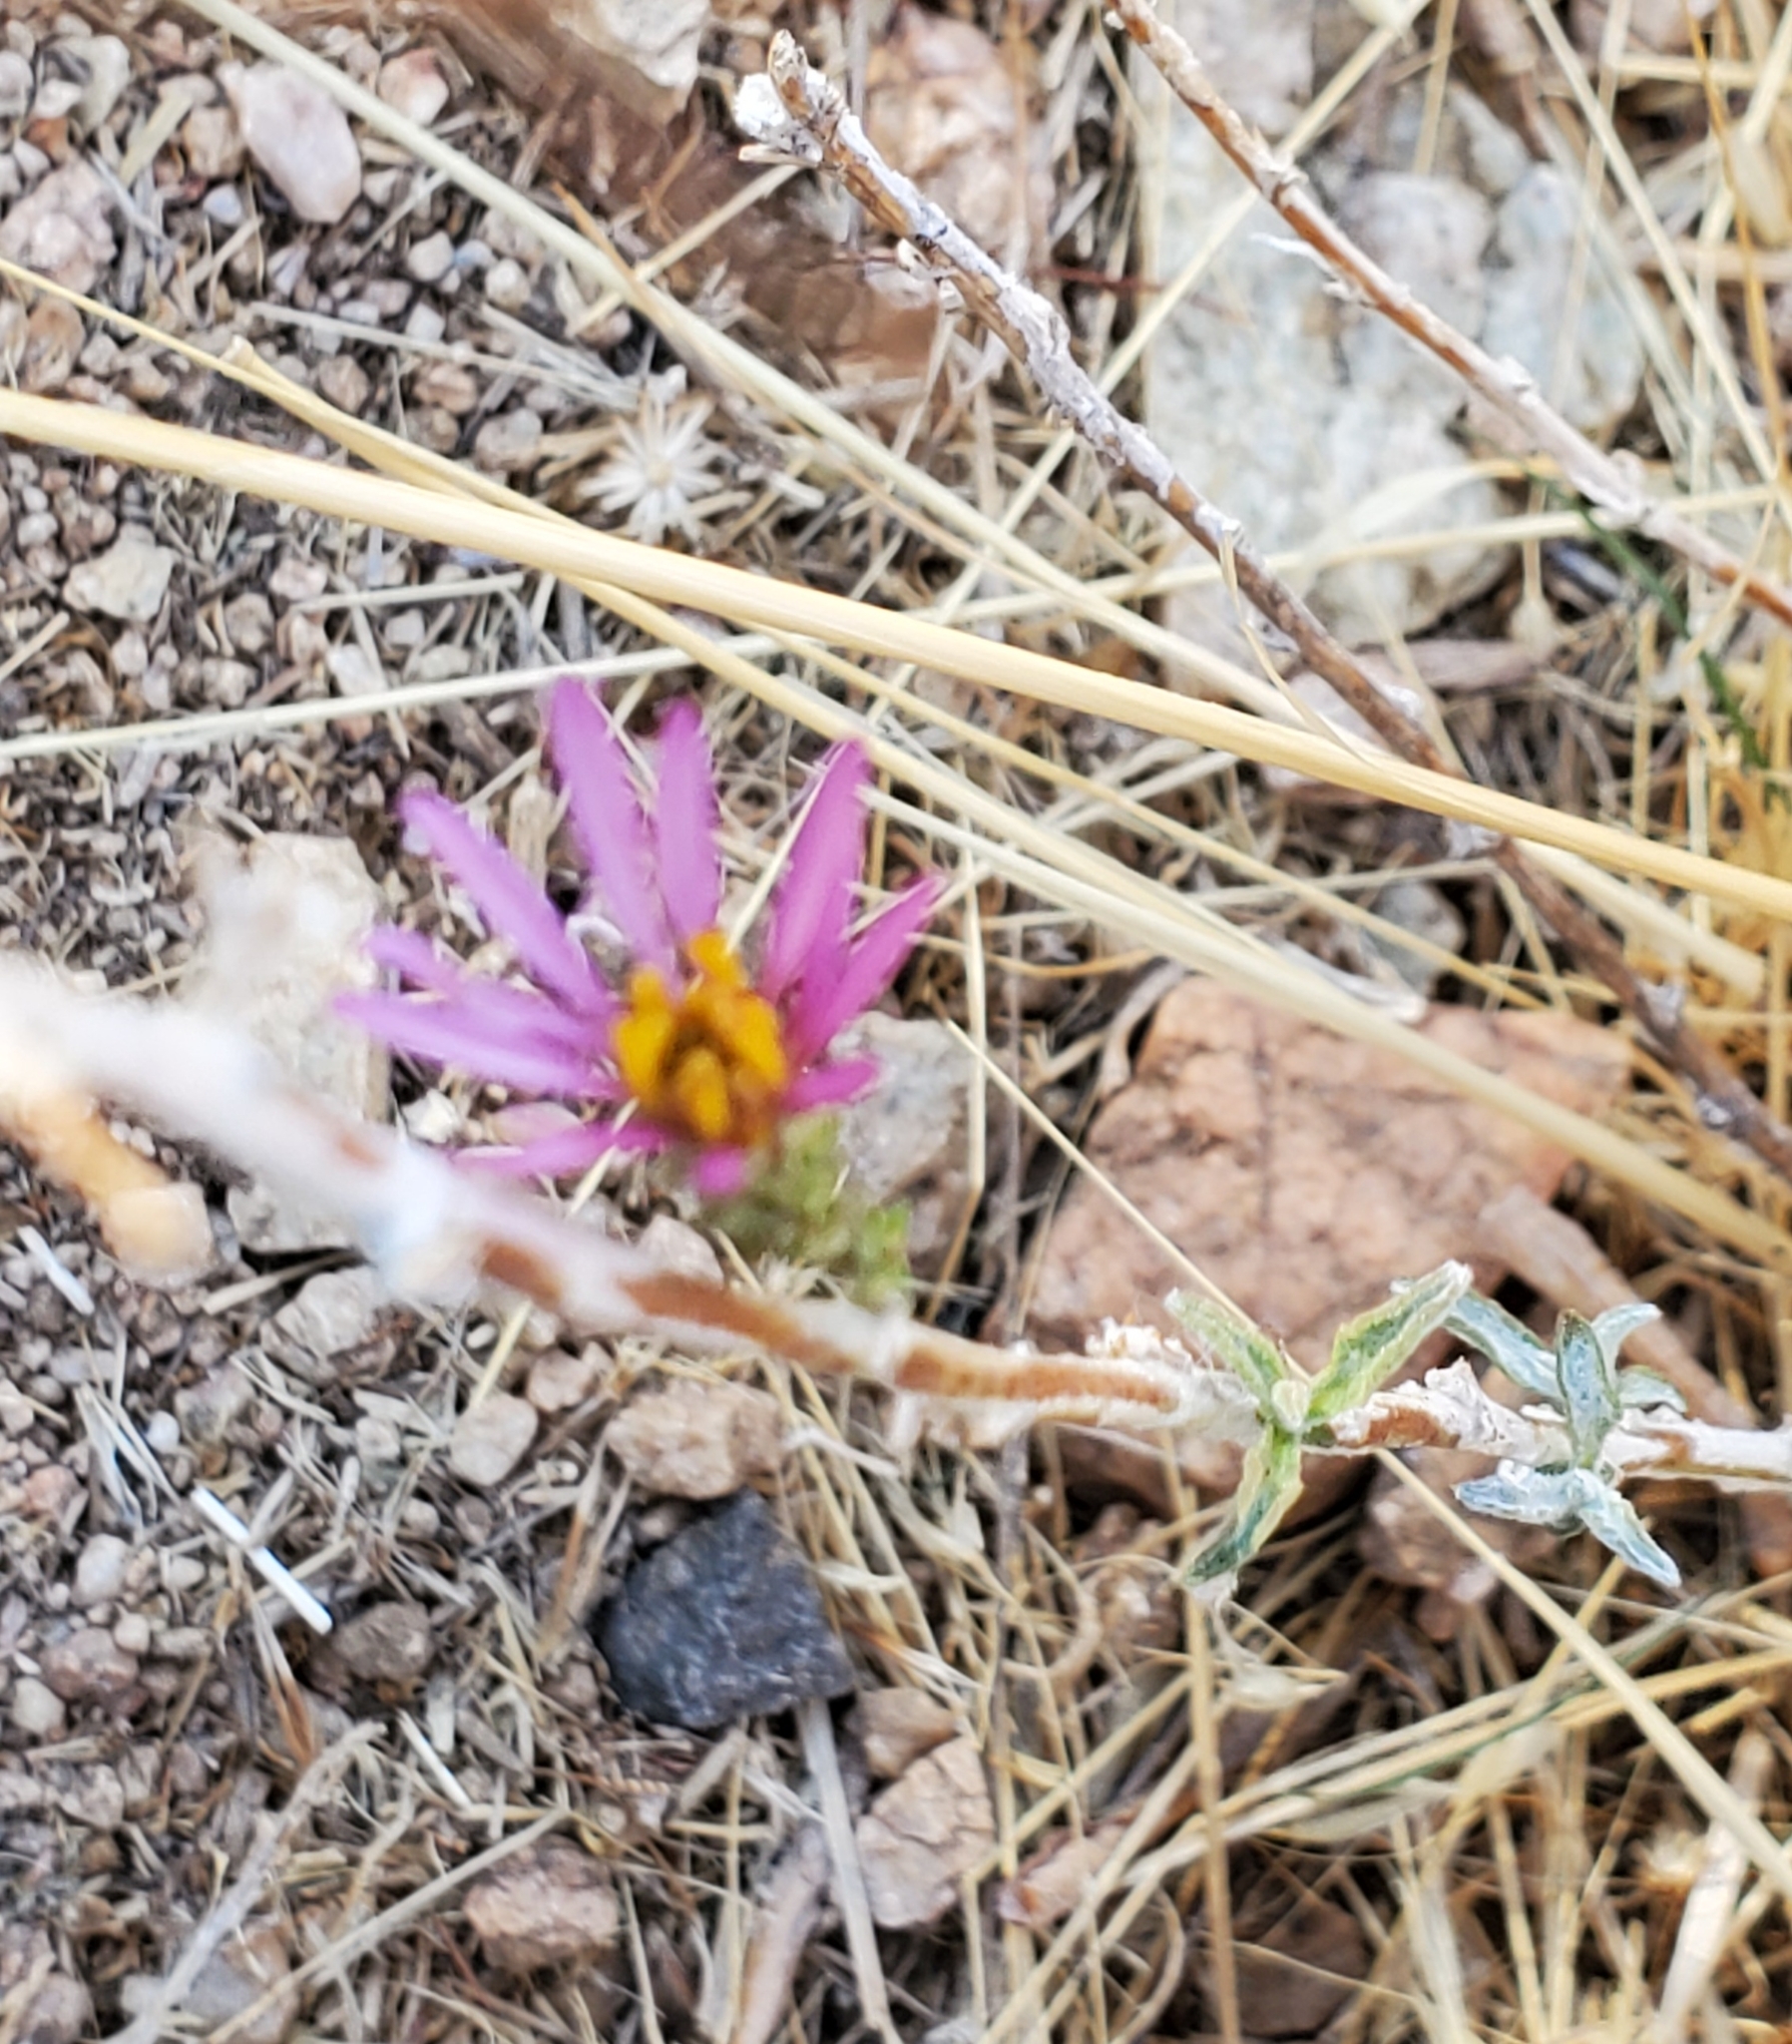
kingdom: Plantae
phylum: Tracheophyta
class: Magnoliopsida
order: Asterales
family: Asteraceae
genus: Corethrogyne
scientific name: Corethrogyne filaginifolia
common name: Sand-aster
